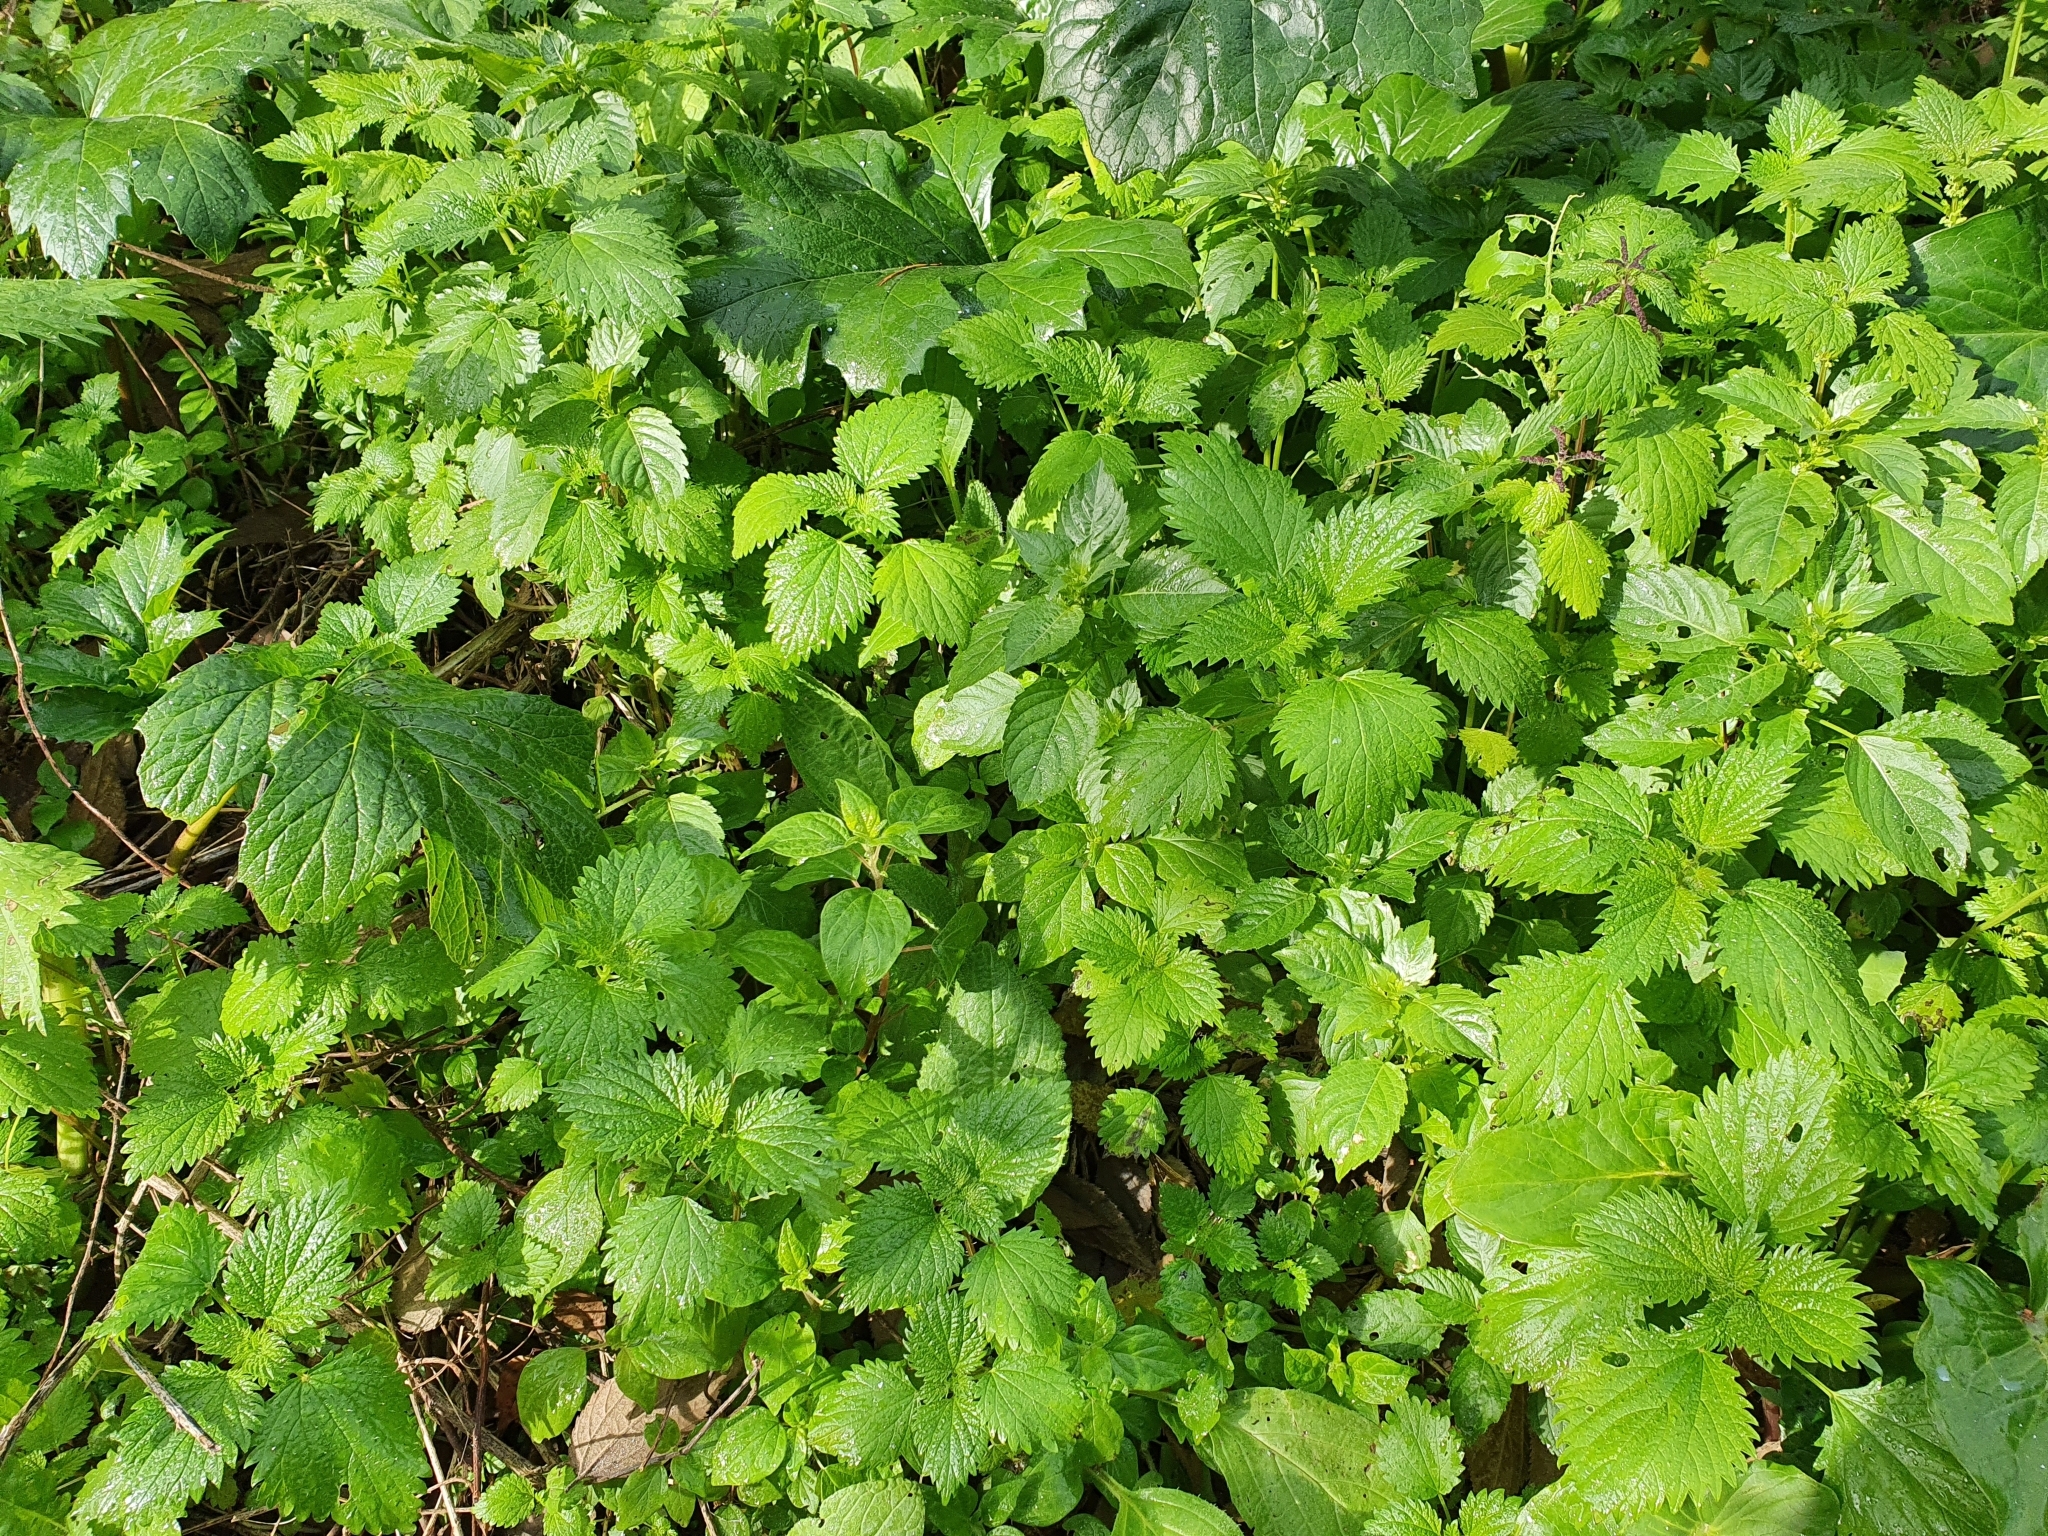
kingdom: Plantae
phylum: Tracheophyta
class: Magnoliopsida
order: Rosales
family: Urticaceae
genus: Urtica
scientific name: Urtica membranacea
